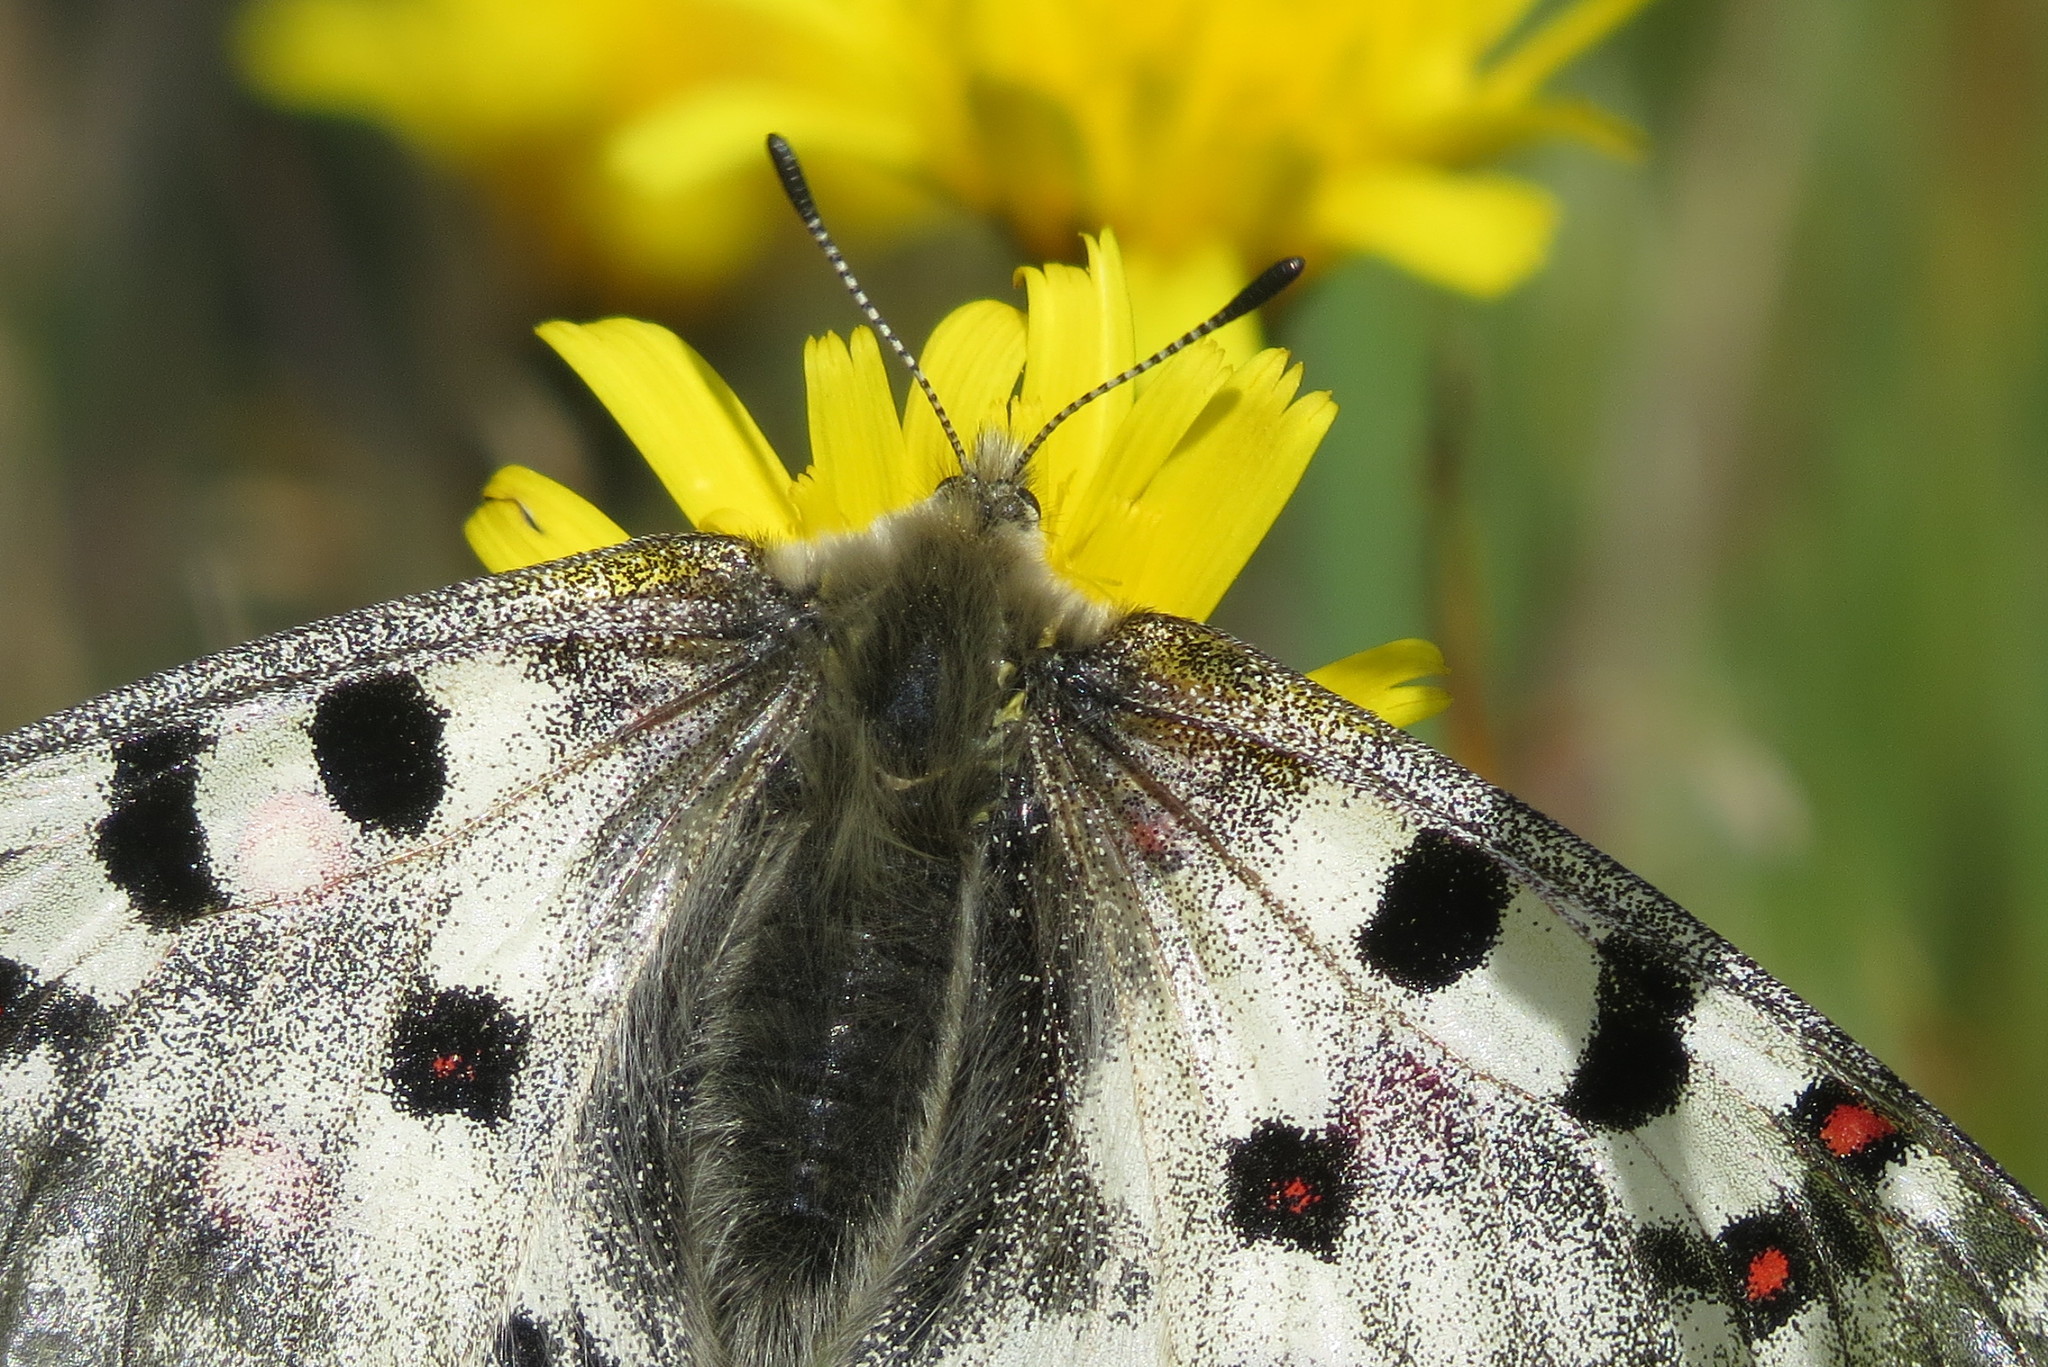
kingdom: Animalia
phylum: Arthropoda
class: Insecta
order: Lepidoptera
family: Papilionidae
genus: Parnassius
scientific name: Parnassius phoebus
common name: Small apollo
